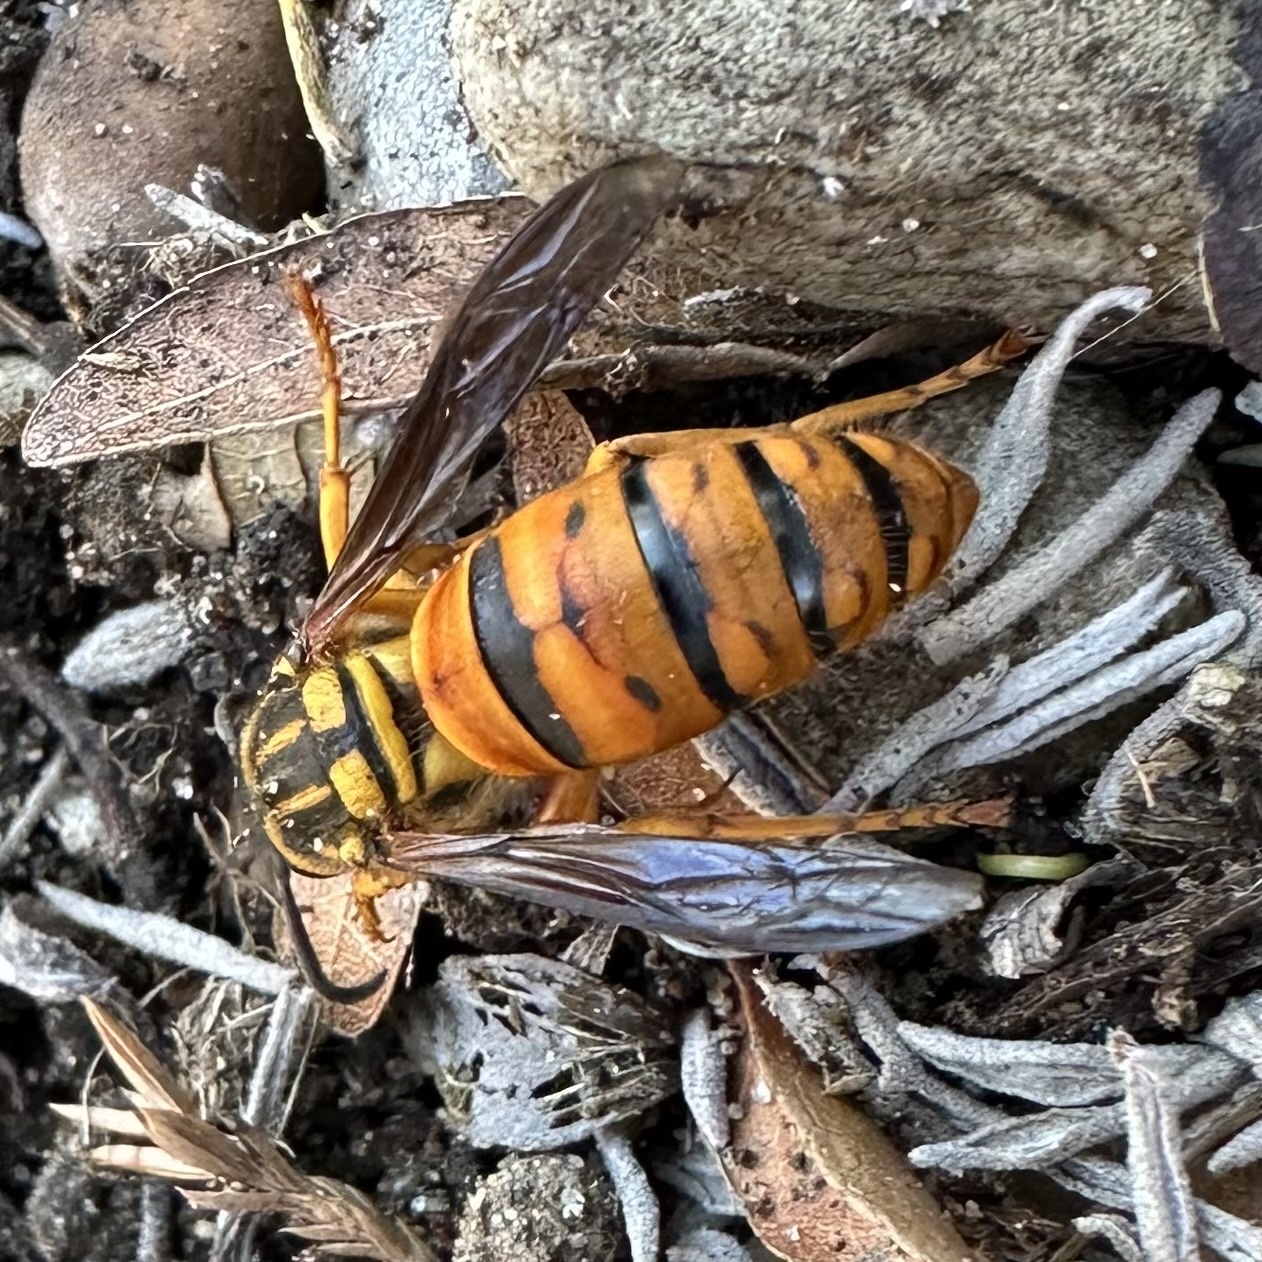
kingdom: Animalia
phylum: Arthropoda
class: Insecta
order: Hymenoptera
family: Vespidae
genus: Vespula
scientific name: Vespula squamosa
